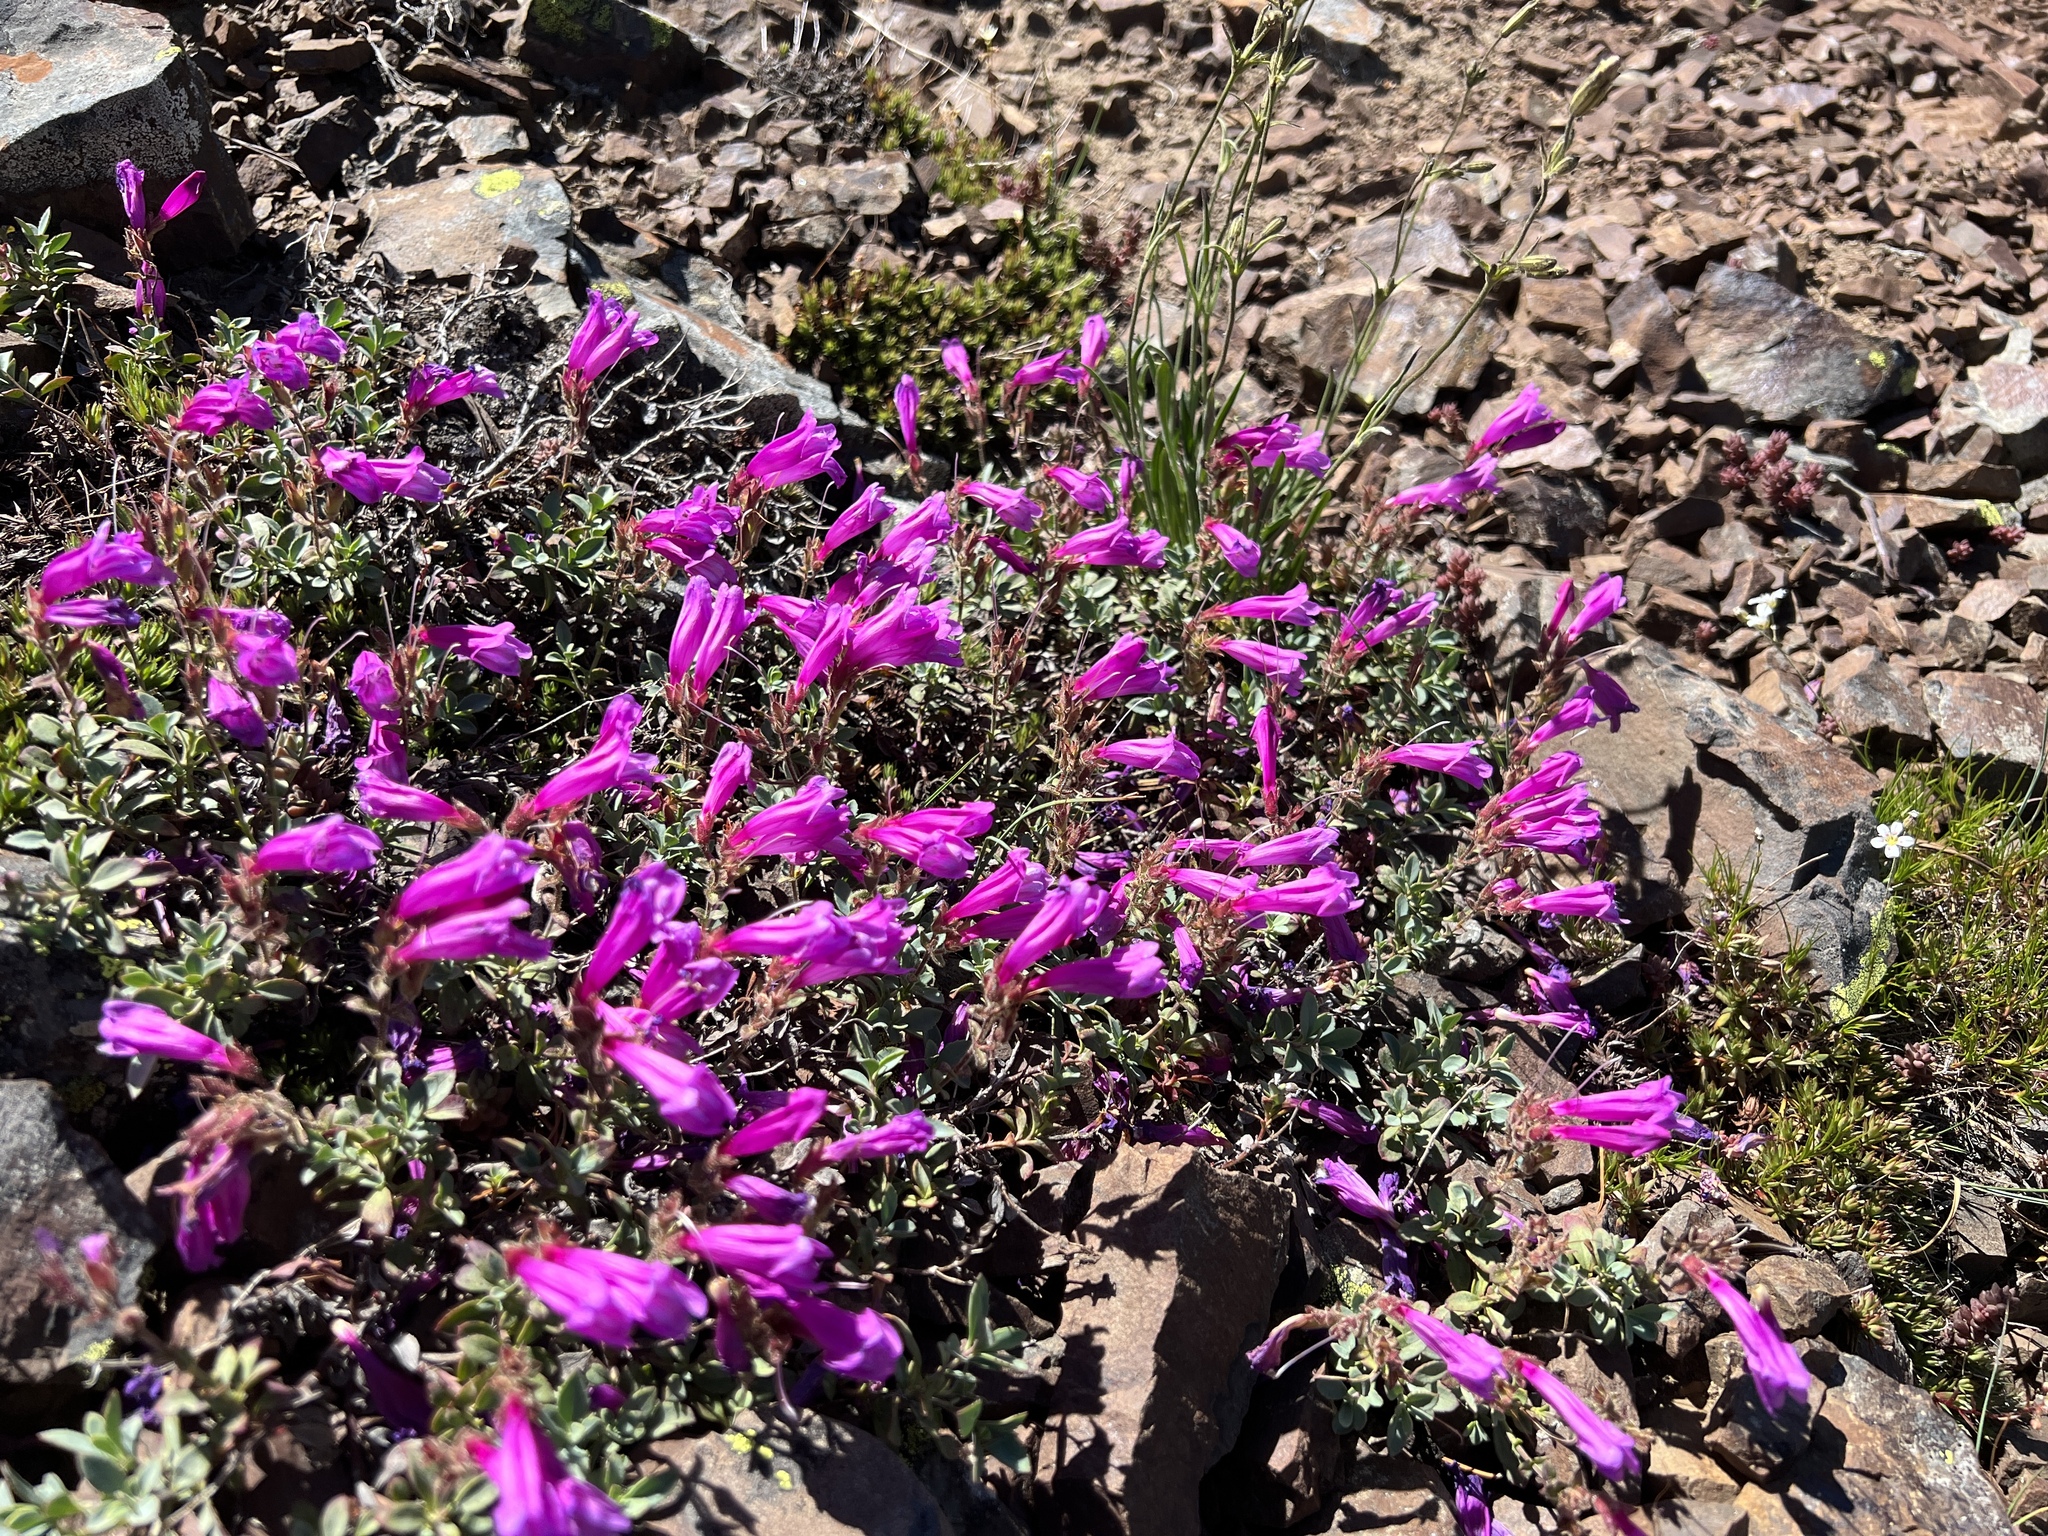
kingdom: Plantae
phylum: Tracheophyta
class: Magnoliopsida
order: Lamiales
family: Plantaginaceae
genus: Penstemon
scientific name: Penstemon rupicola
